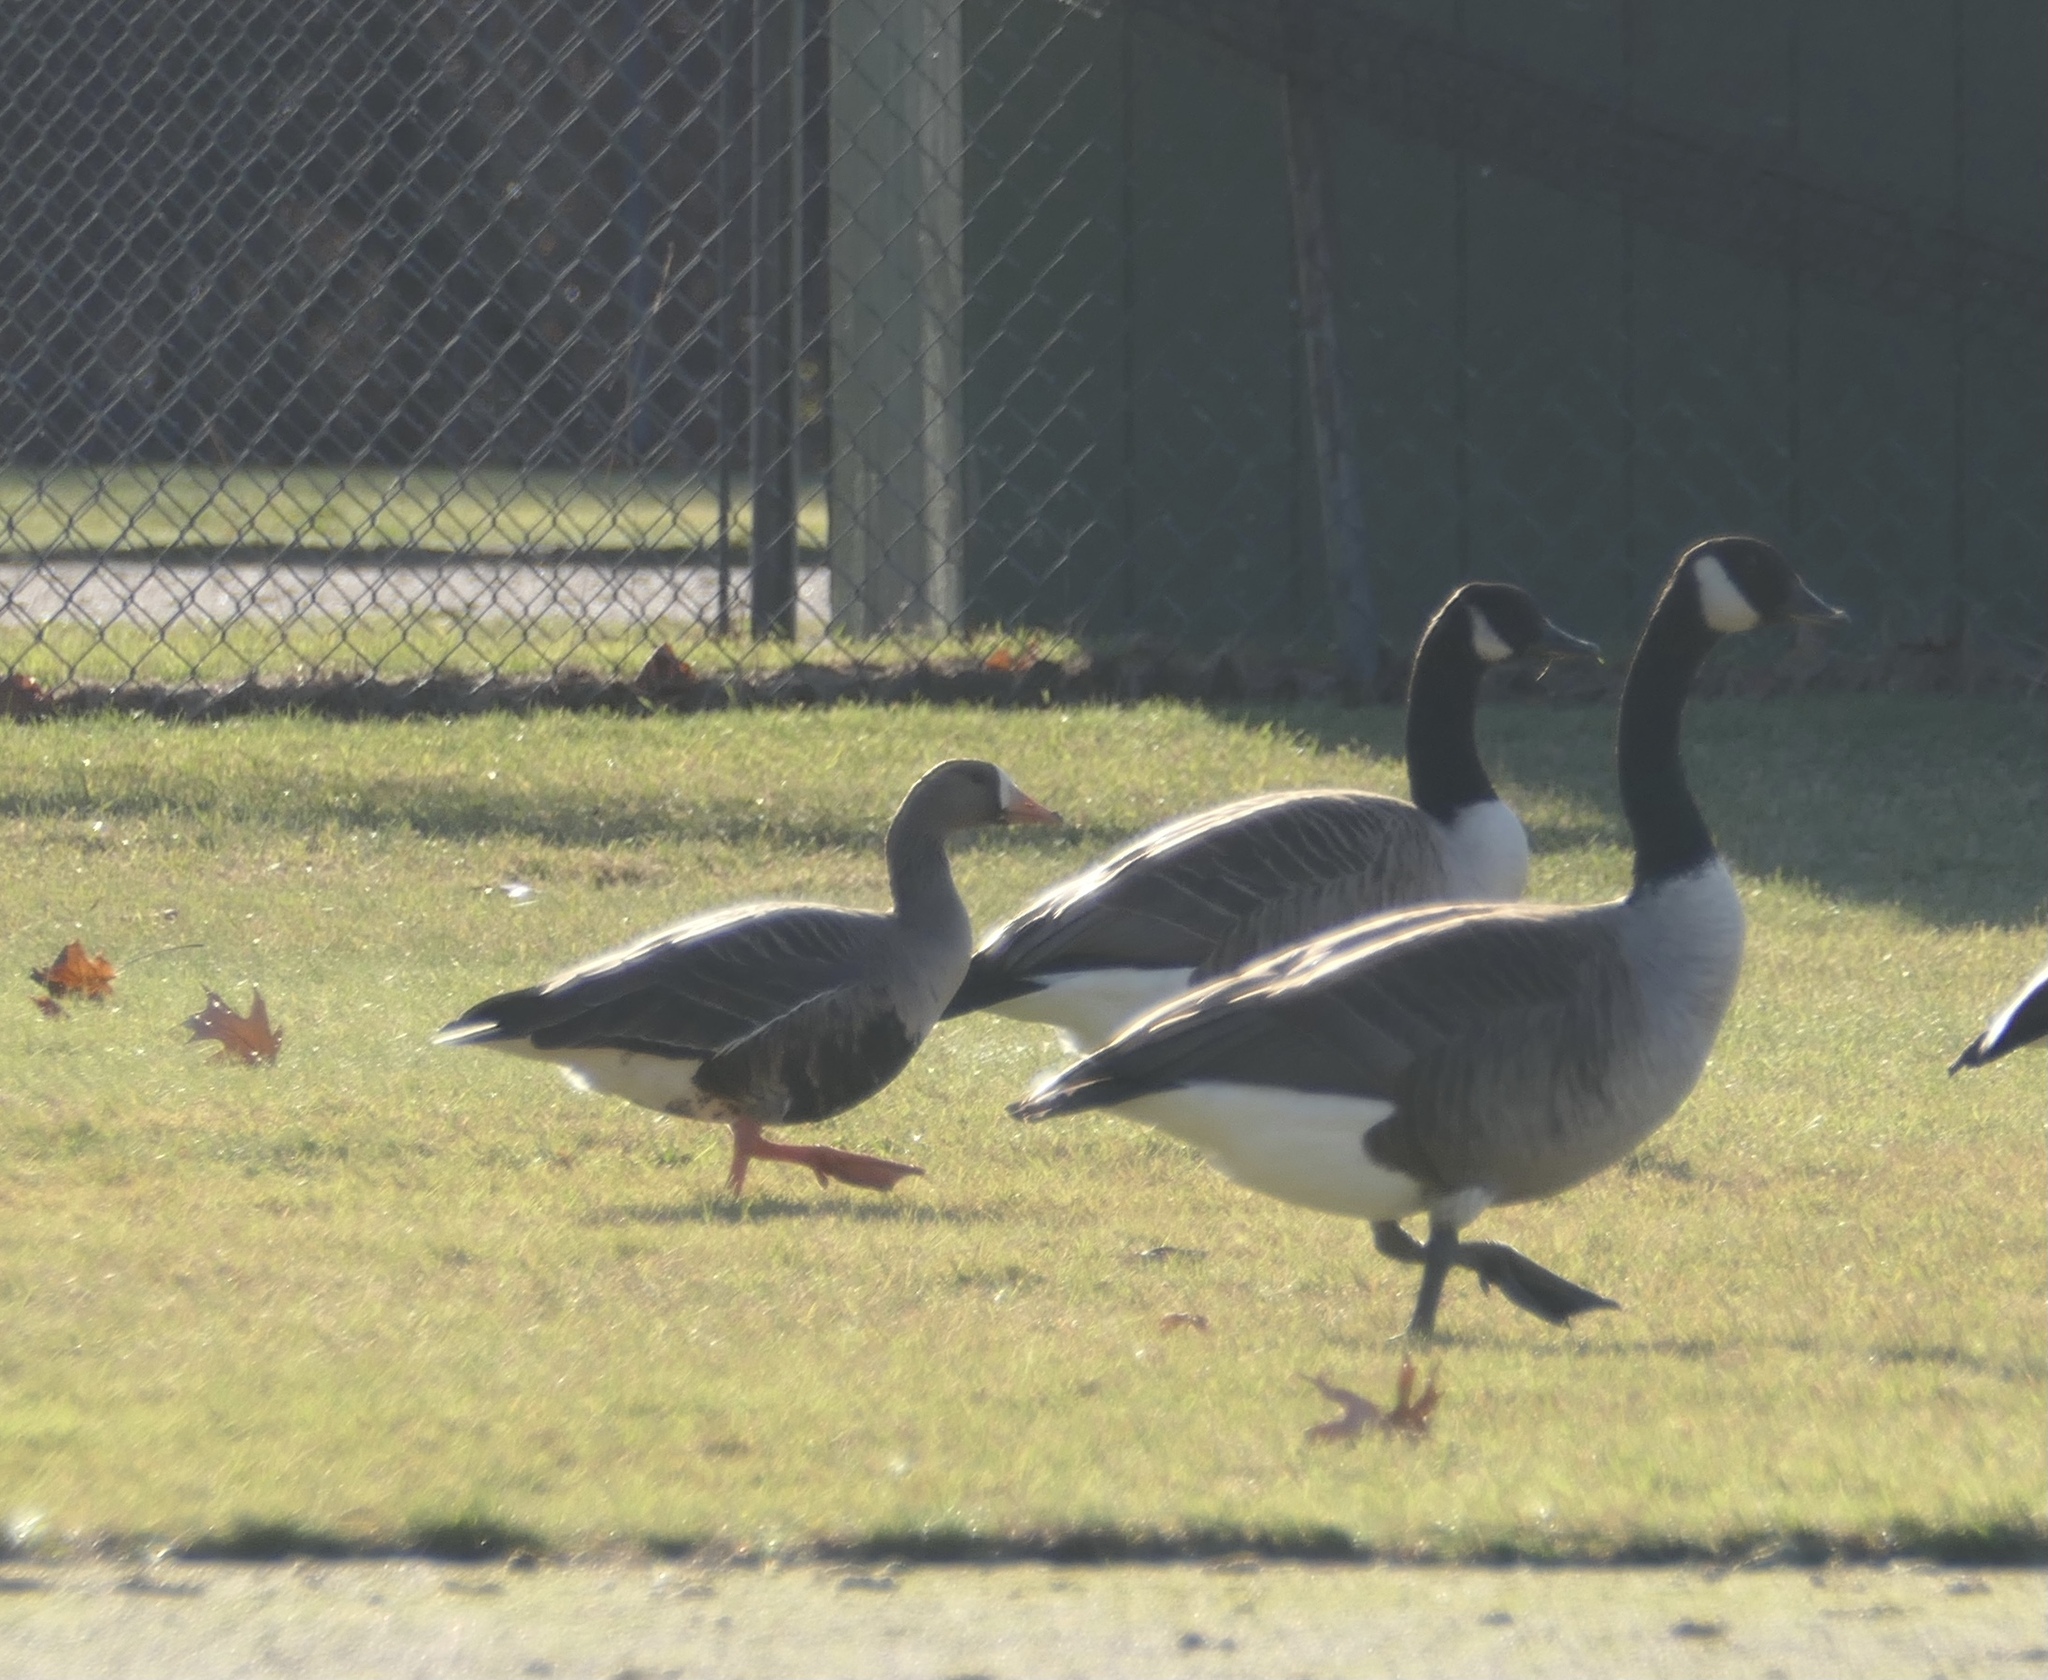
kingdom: Animalia
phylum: Chordata
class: Aves
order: Anseriformes
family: Anatidae
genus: Branta
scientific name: Branta canadensis
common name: Canada goose
